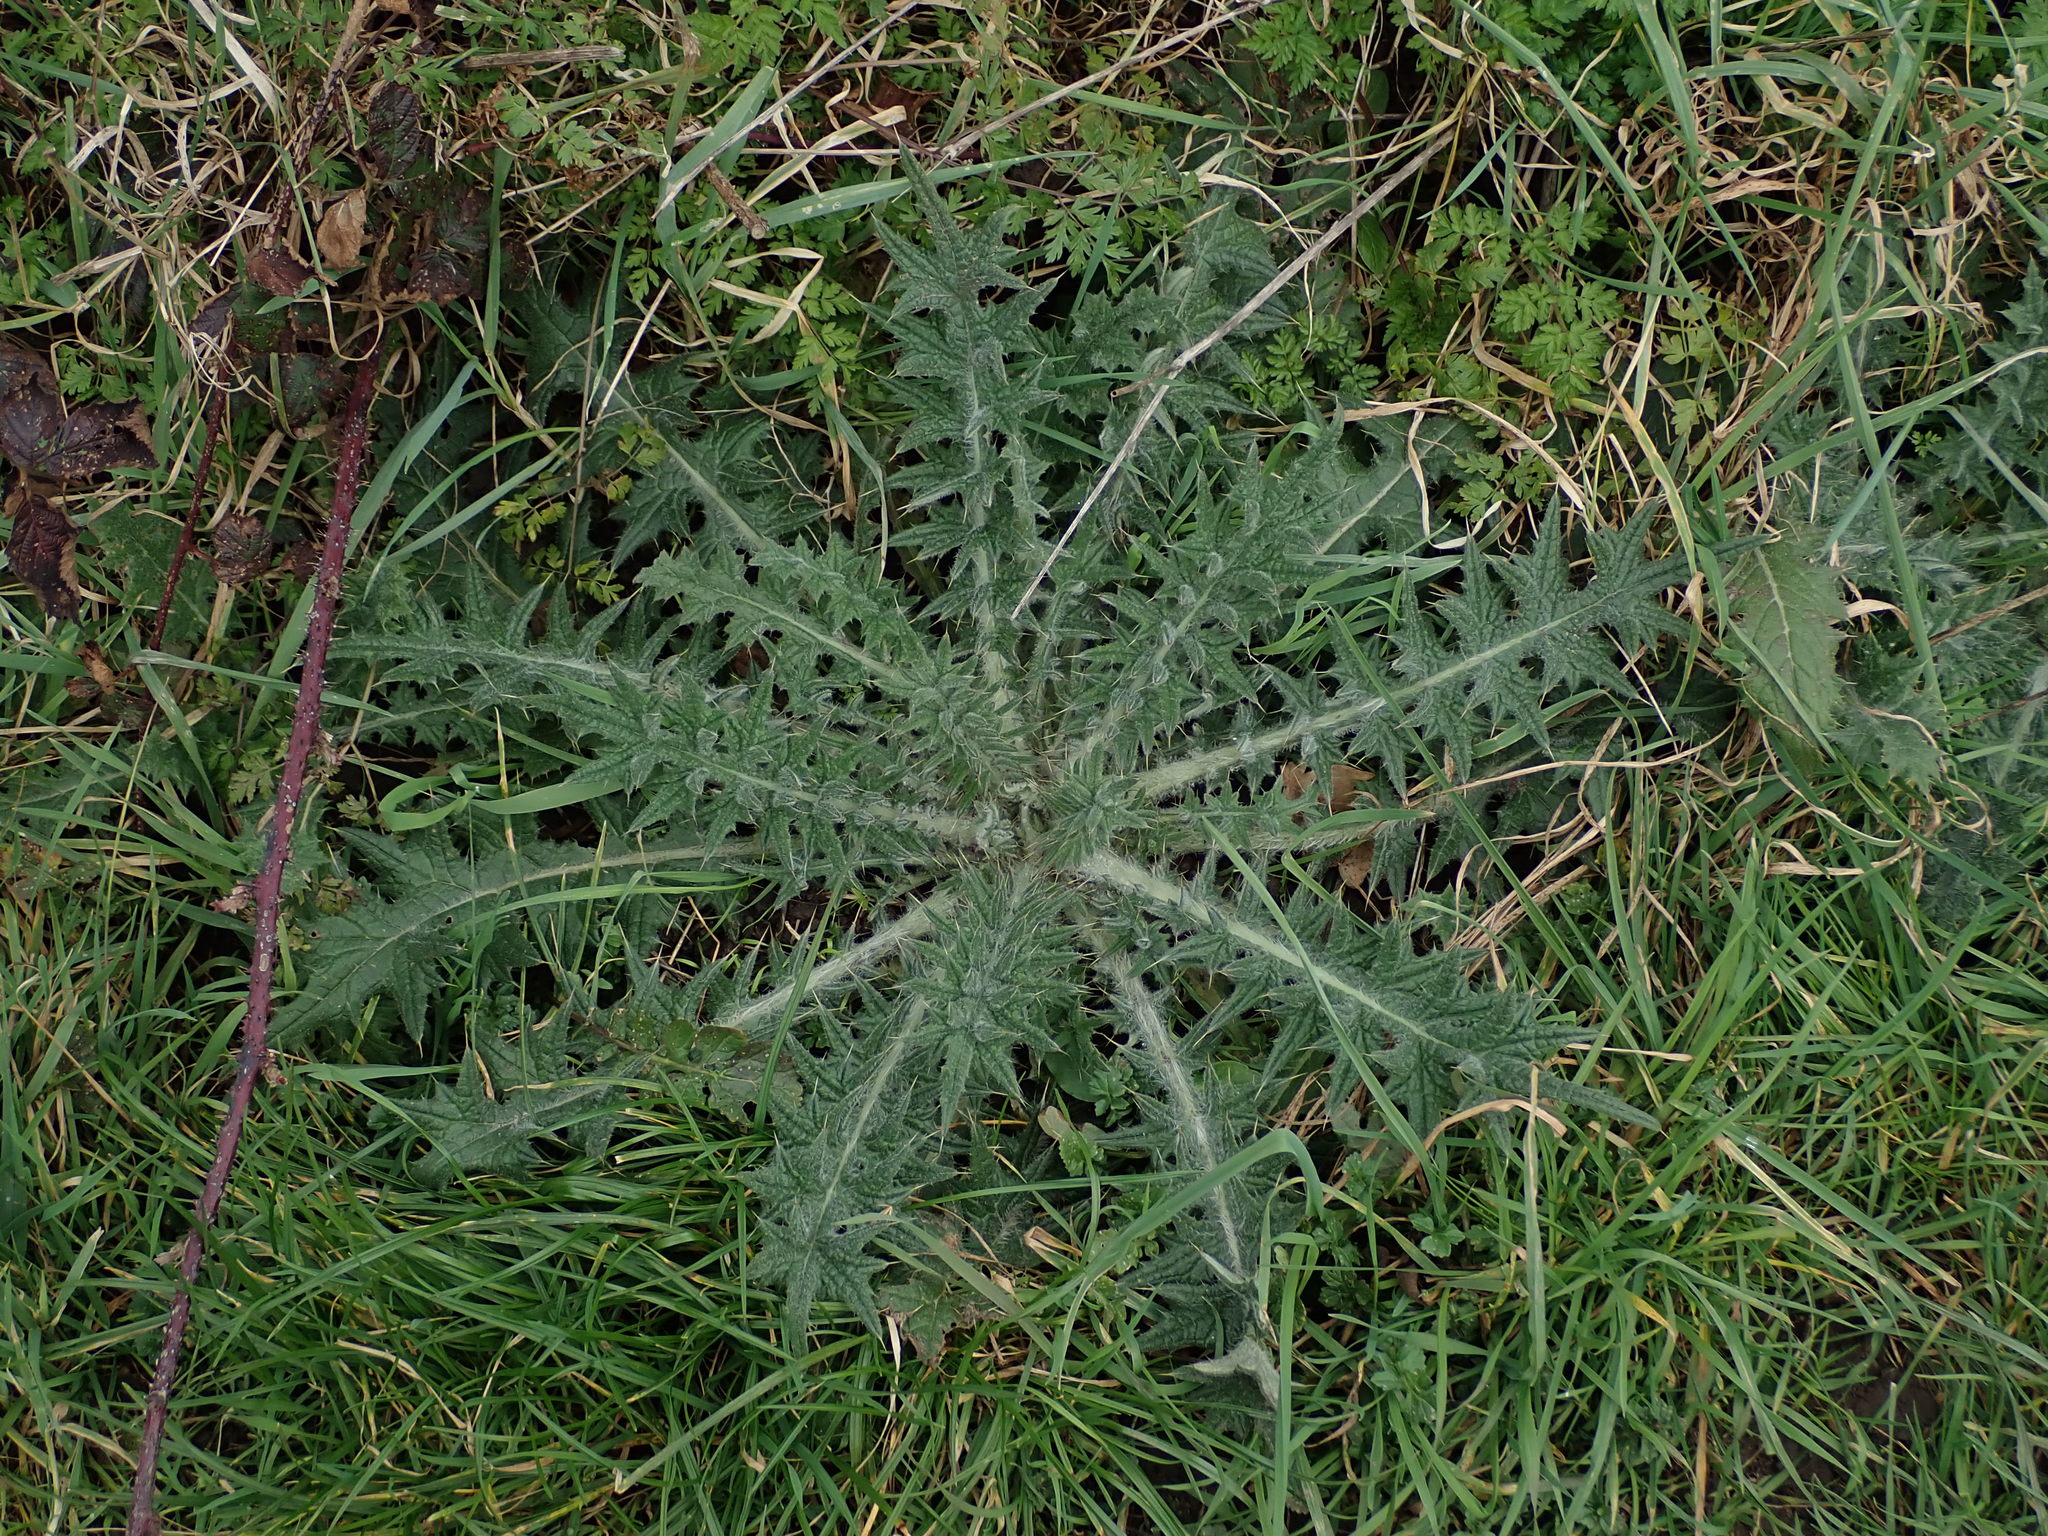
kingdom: Plantae
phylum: Tracheophyta
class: Magnoliopsida
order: Asterales
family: Asteraceae
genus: Cirsium
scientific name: Cirsium vulgare
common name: Bull thistle
